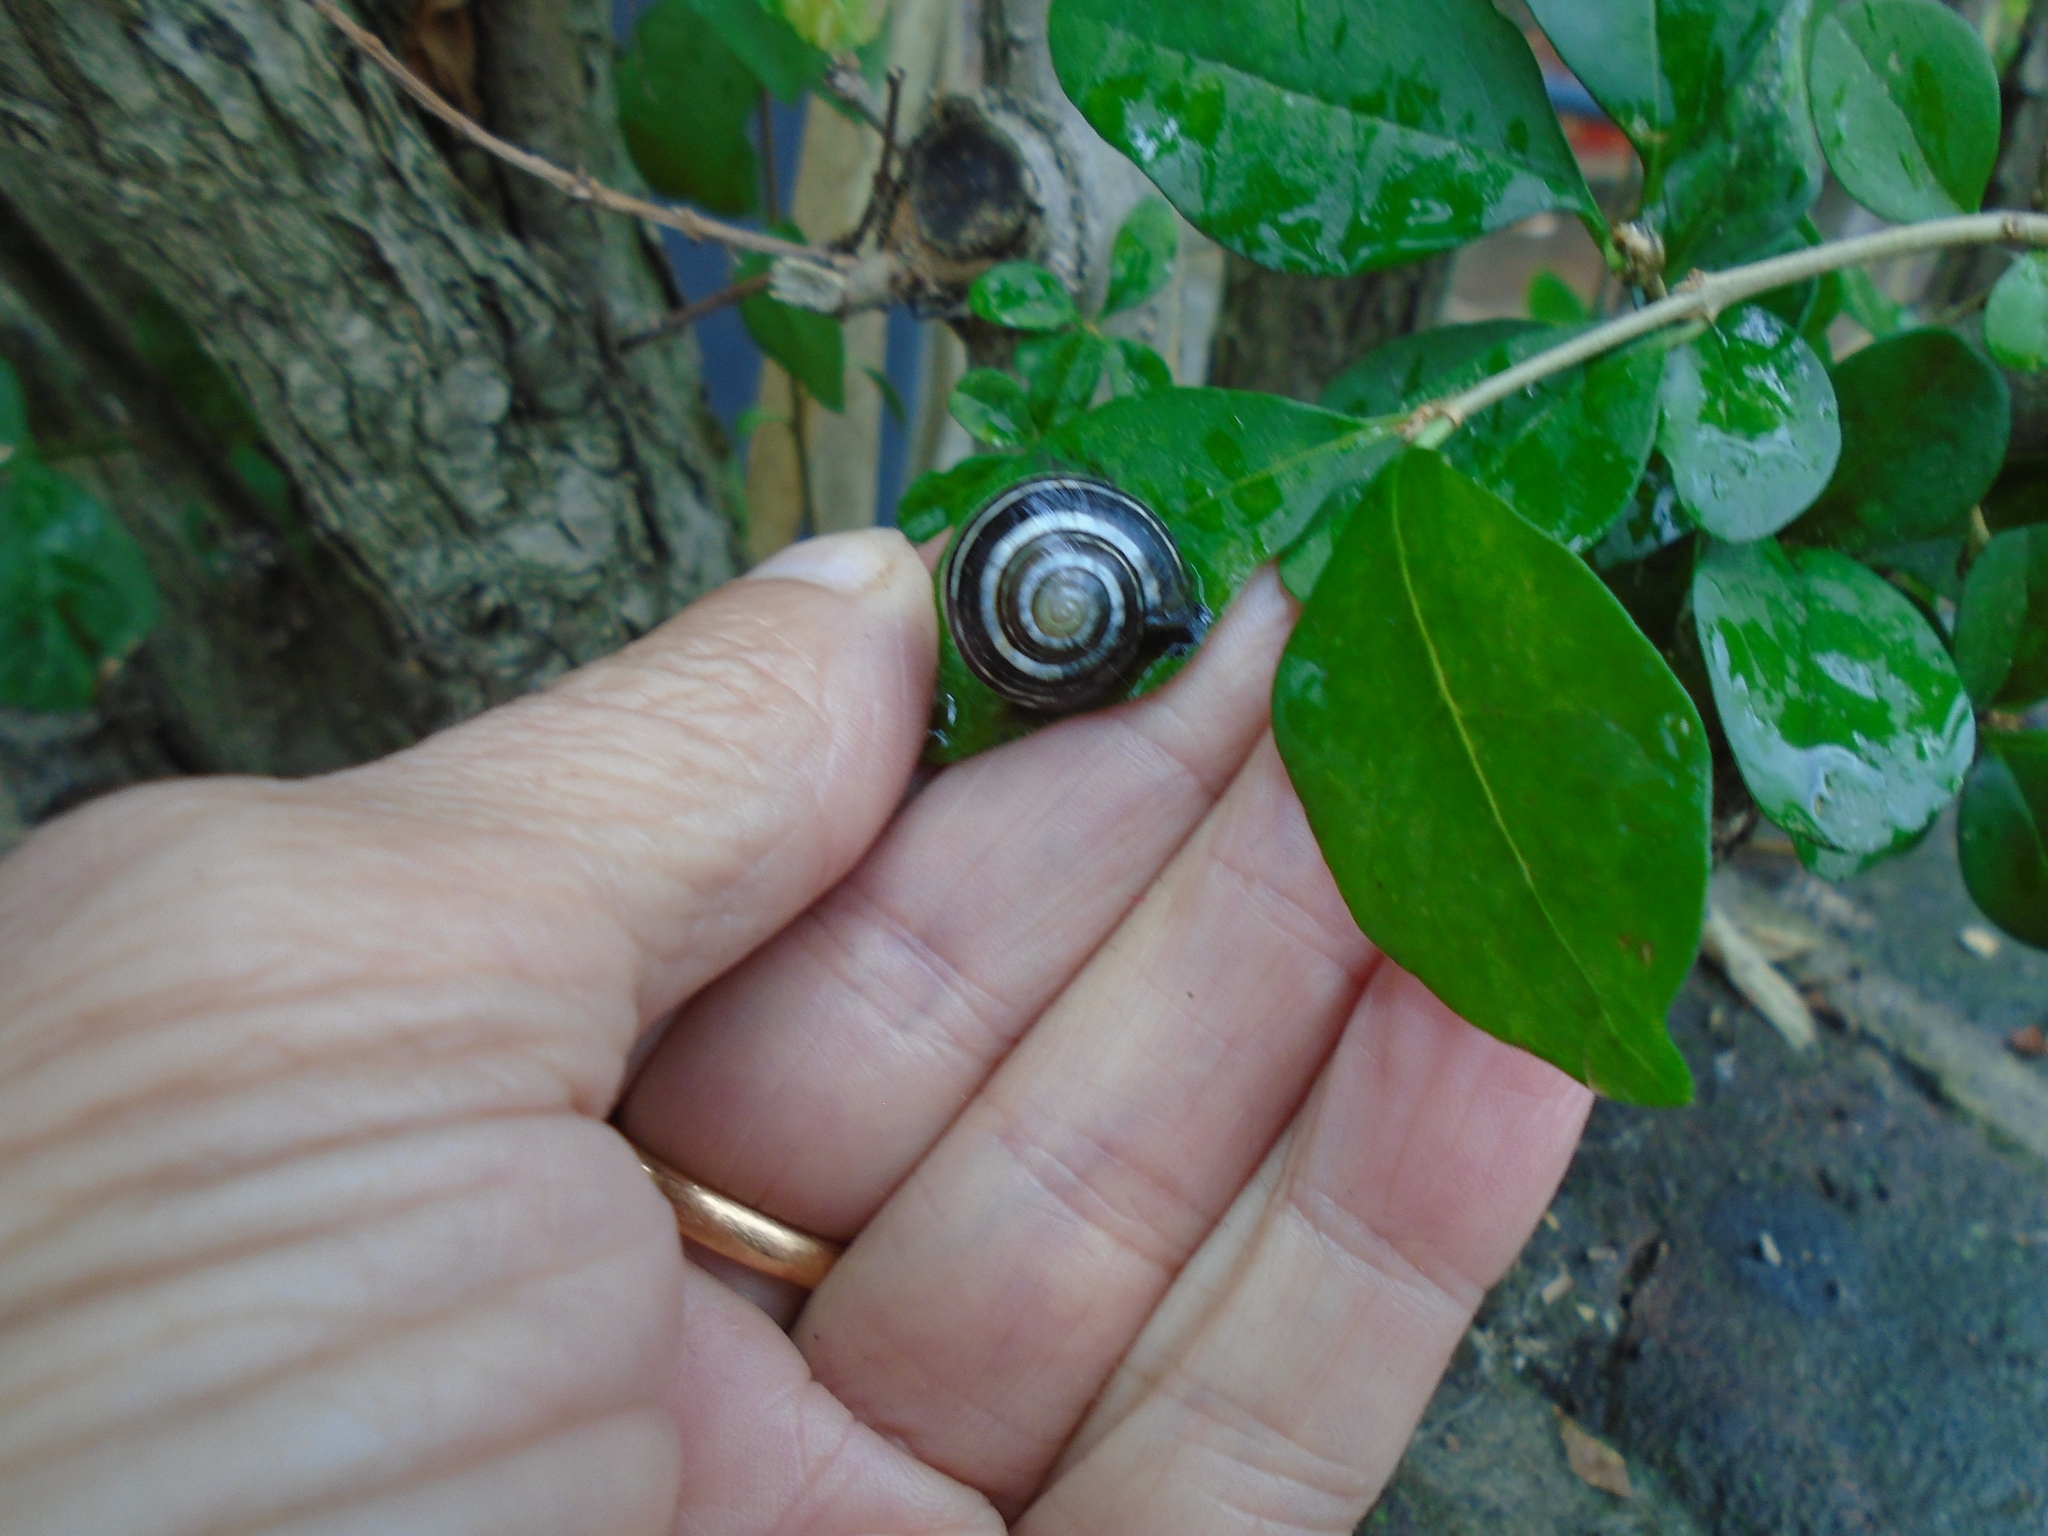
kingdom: Animalia
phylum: Mollusca
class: Gastropoda
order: Stylommatophora
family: Helicidae
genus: Cepaea
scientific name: Cepaea nemoralis
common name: Grovesnail
